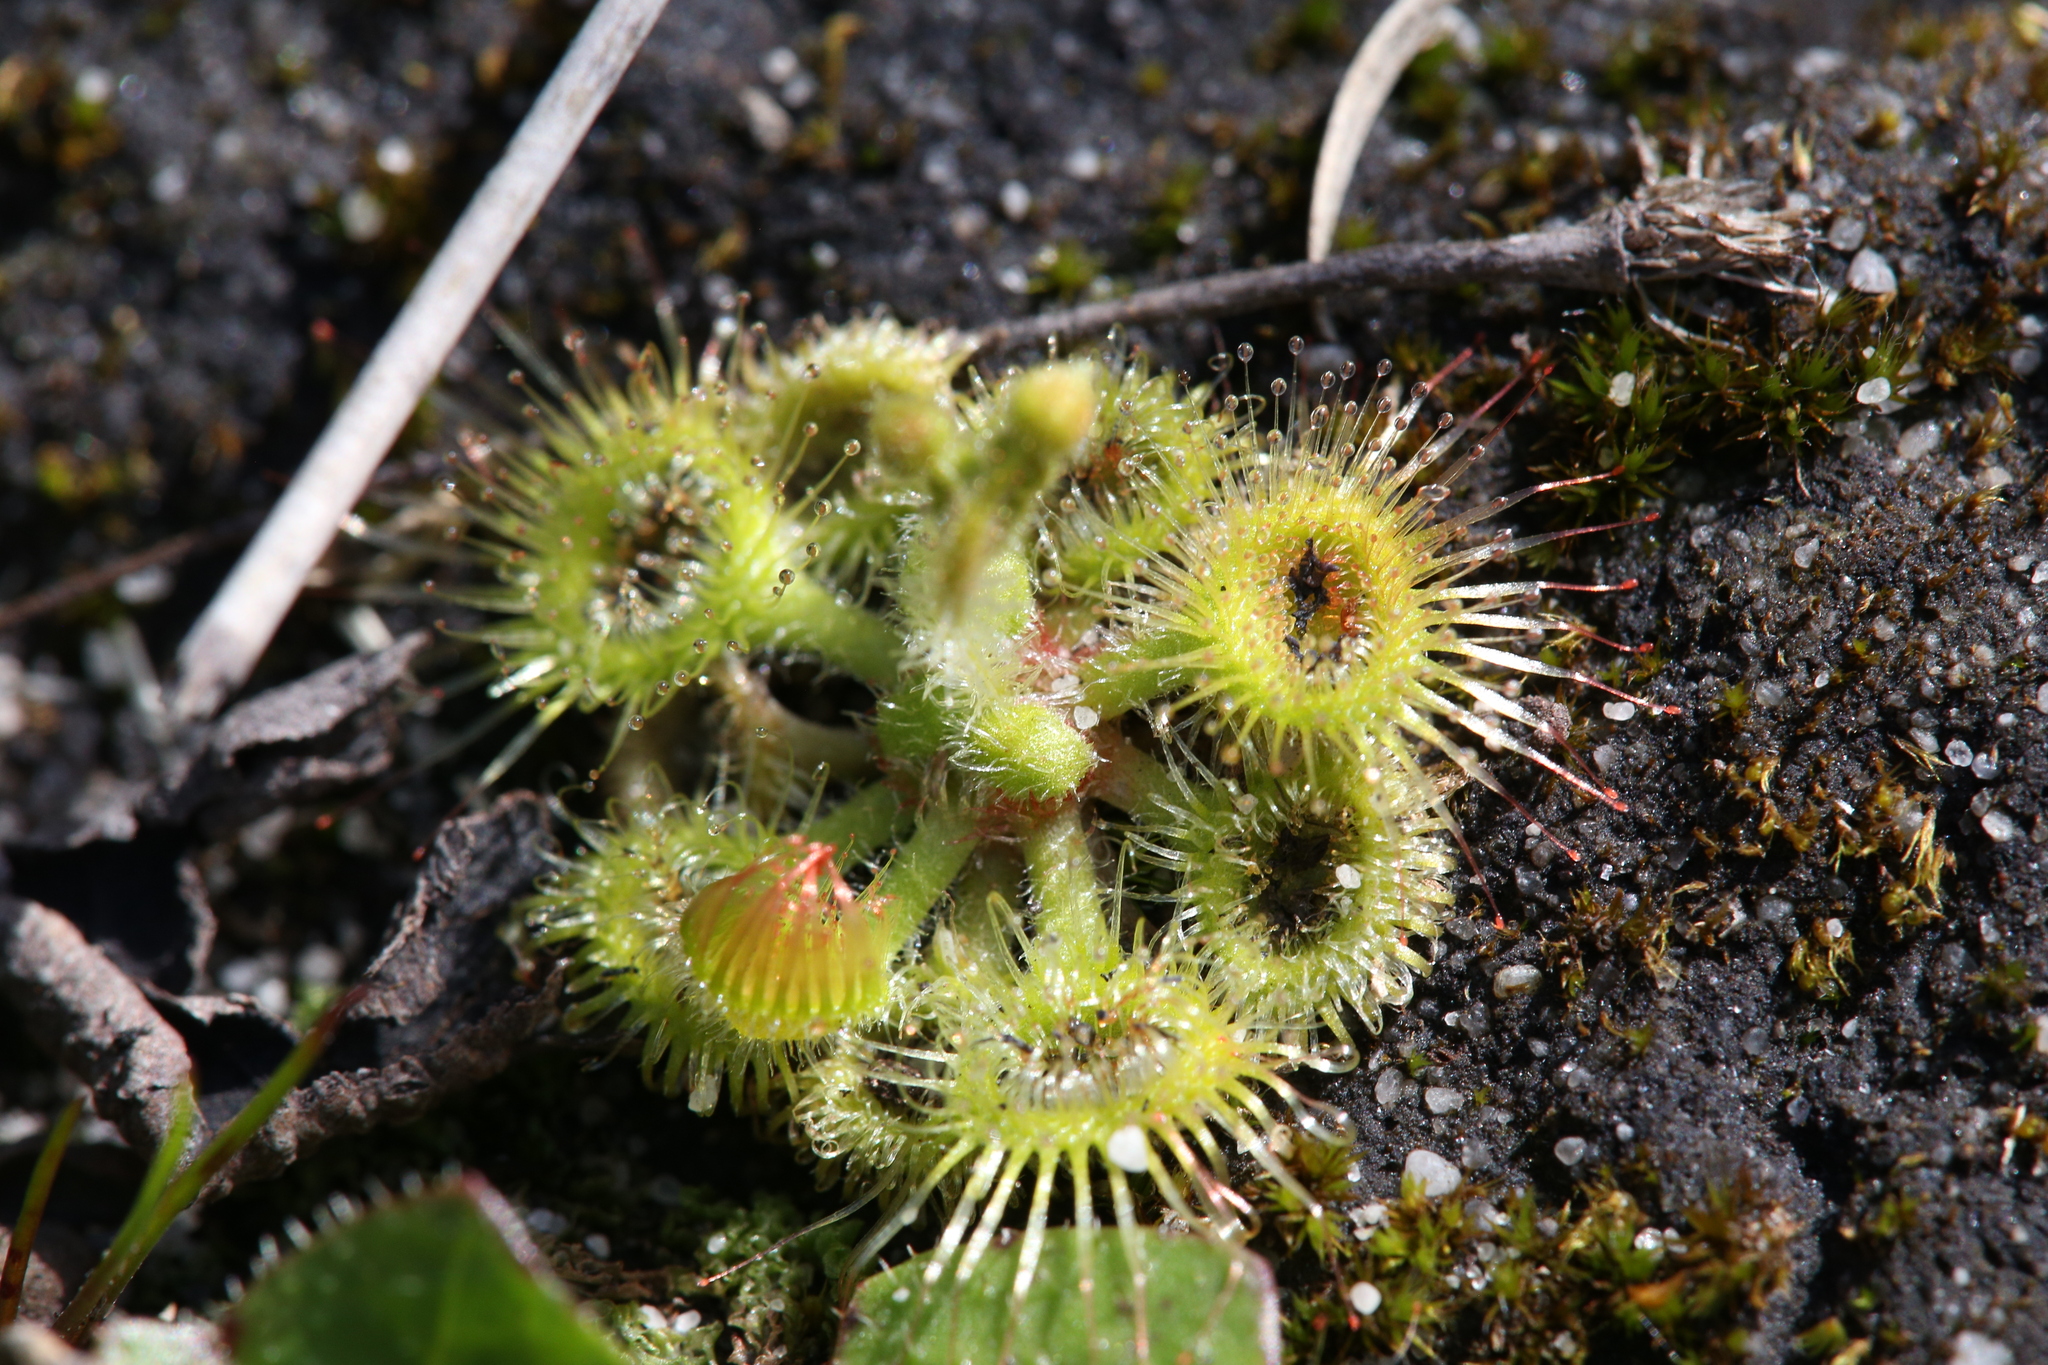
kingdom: Plantae
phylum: Tracheophyta
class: Magnoliopsida
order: Caryophyllales
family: Droseraceae
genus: Drosera
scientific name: Drosera glanduligera
